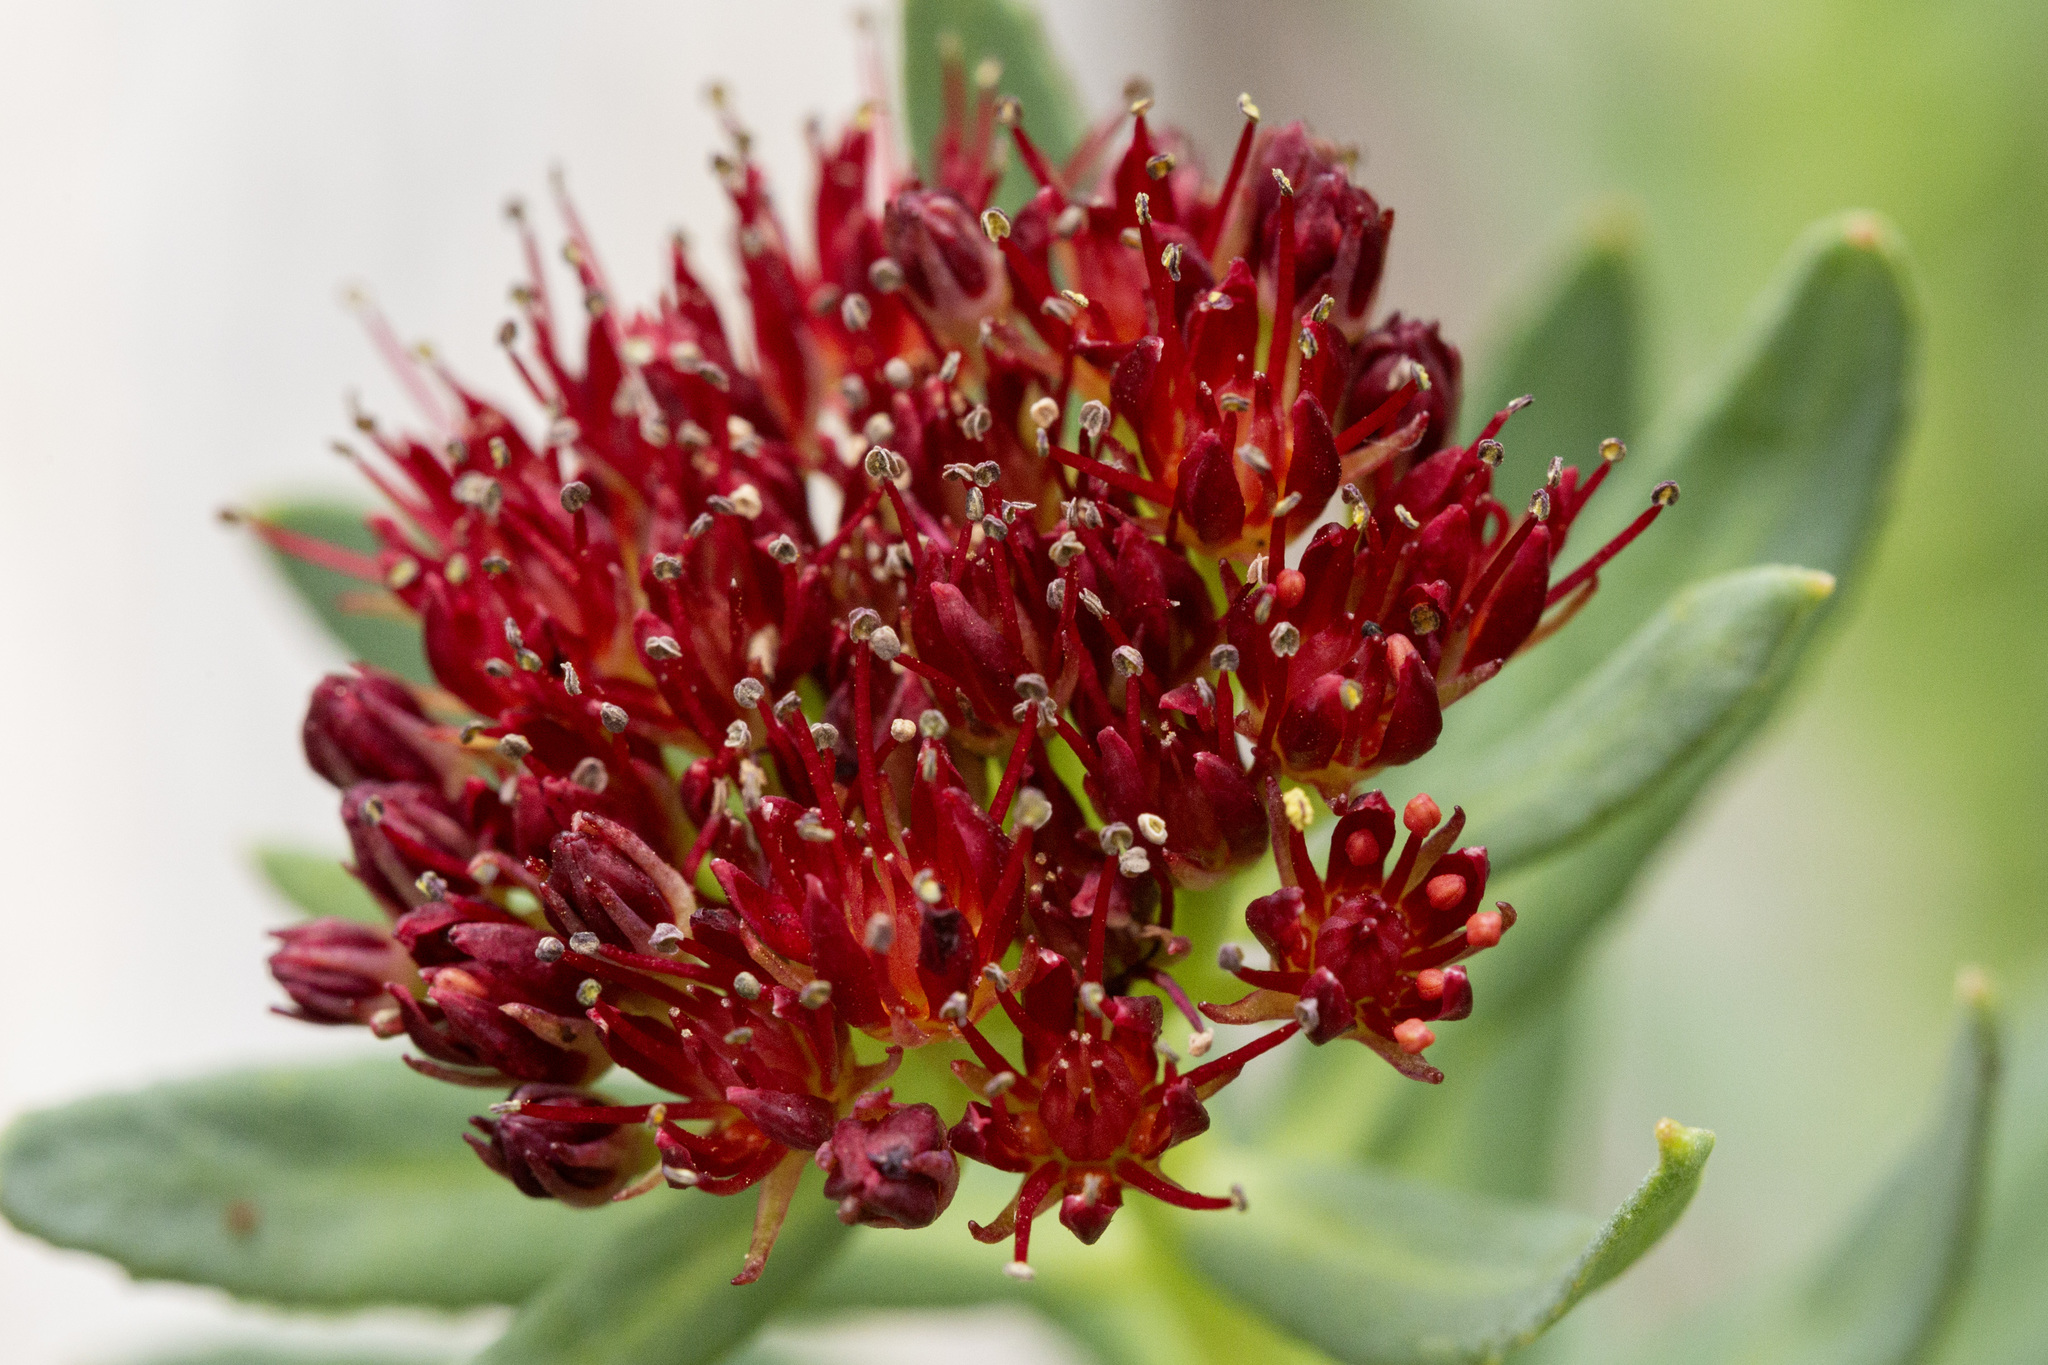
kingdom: Plantae
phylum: Tracheophyta
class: Magnoliopsida
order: Saxifragales
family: Crassulaceae
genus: Rhodiola
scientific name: Rhodiola integrifolia
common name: Western roseroot
